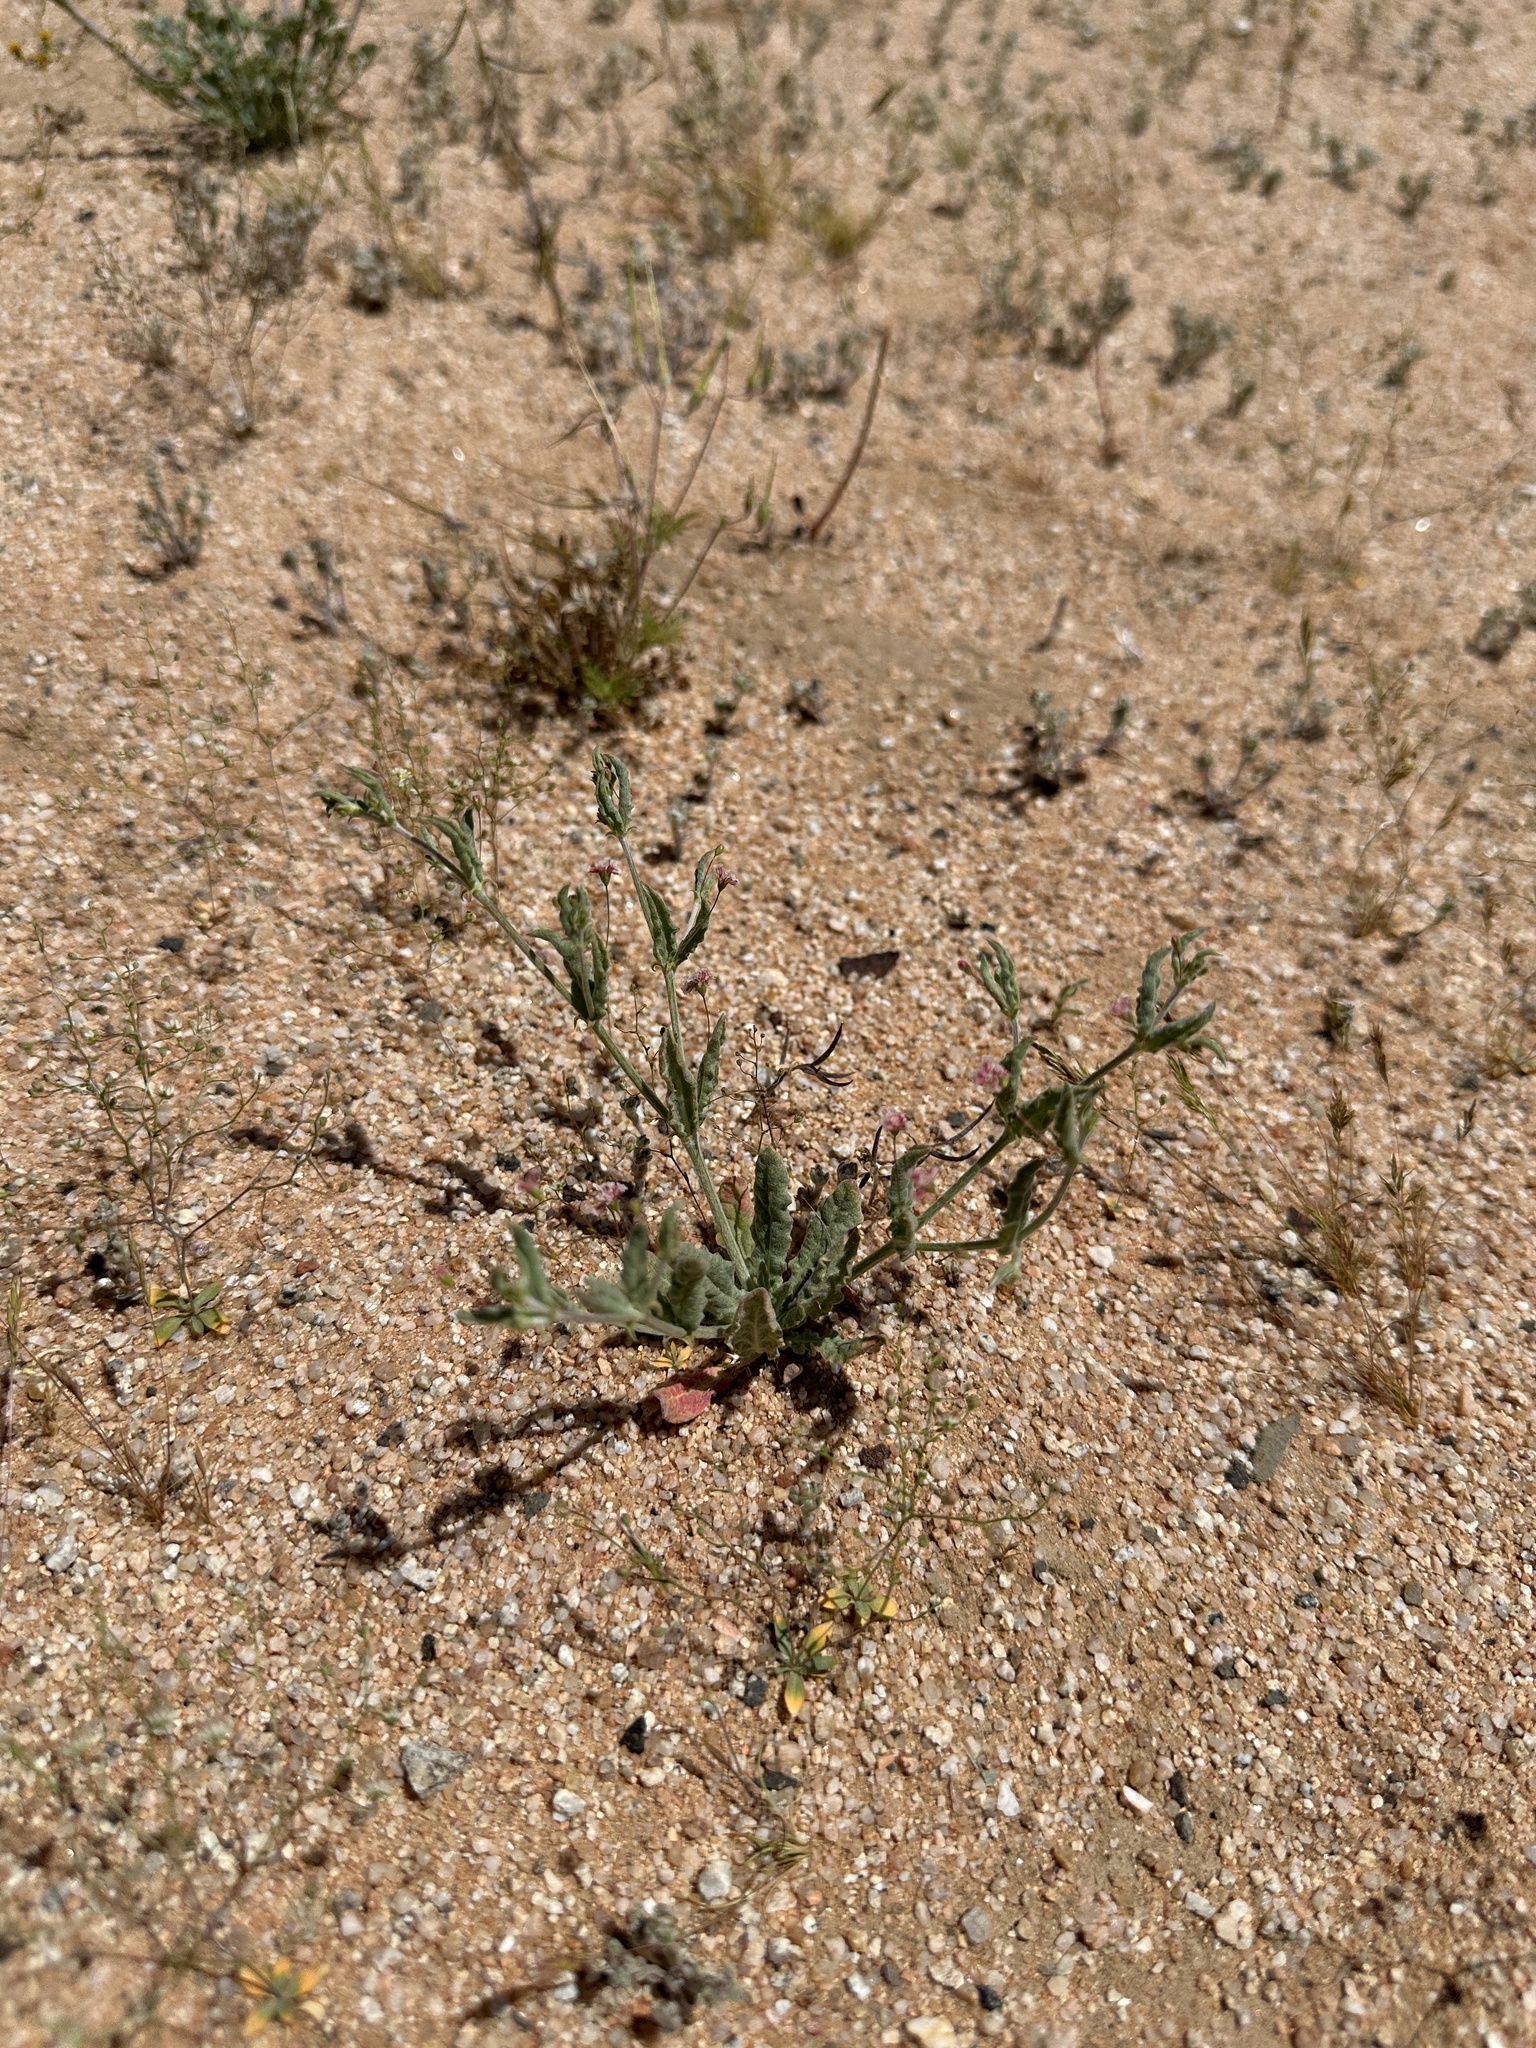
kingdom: Plantae
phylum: Tracheophyta
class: Magnoliopsida
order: Caryophyllales
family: Polygonaceae
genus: Eriogonum
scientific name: Eriogonum gracillimum
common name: Rose-and-white wild buckwheat
